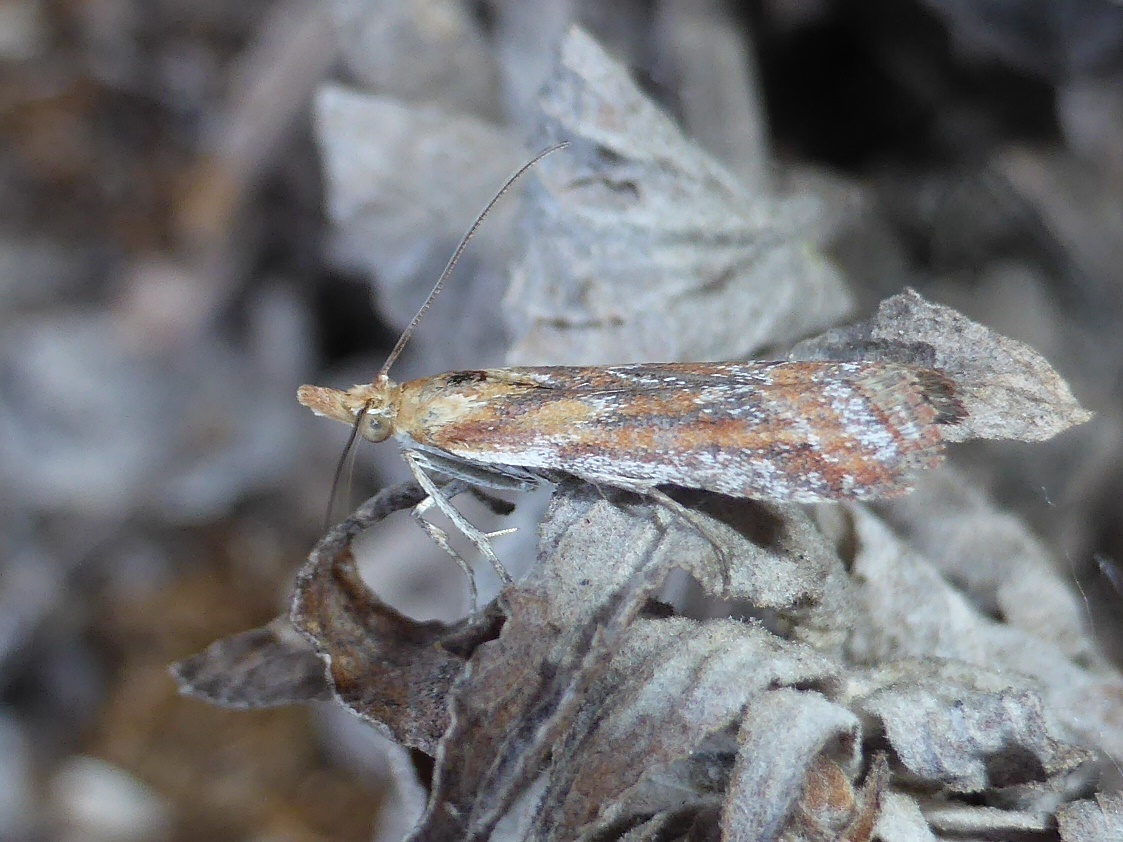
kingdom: Animalia
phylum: Arthropoda
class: Insecta
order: Lepidoptera
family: Pyralidae
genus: Ancylosis
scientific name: Ancylosis cinnamomella
